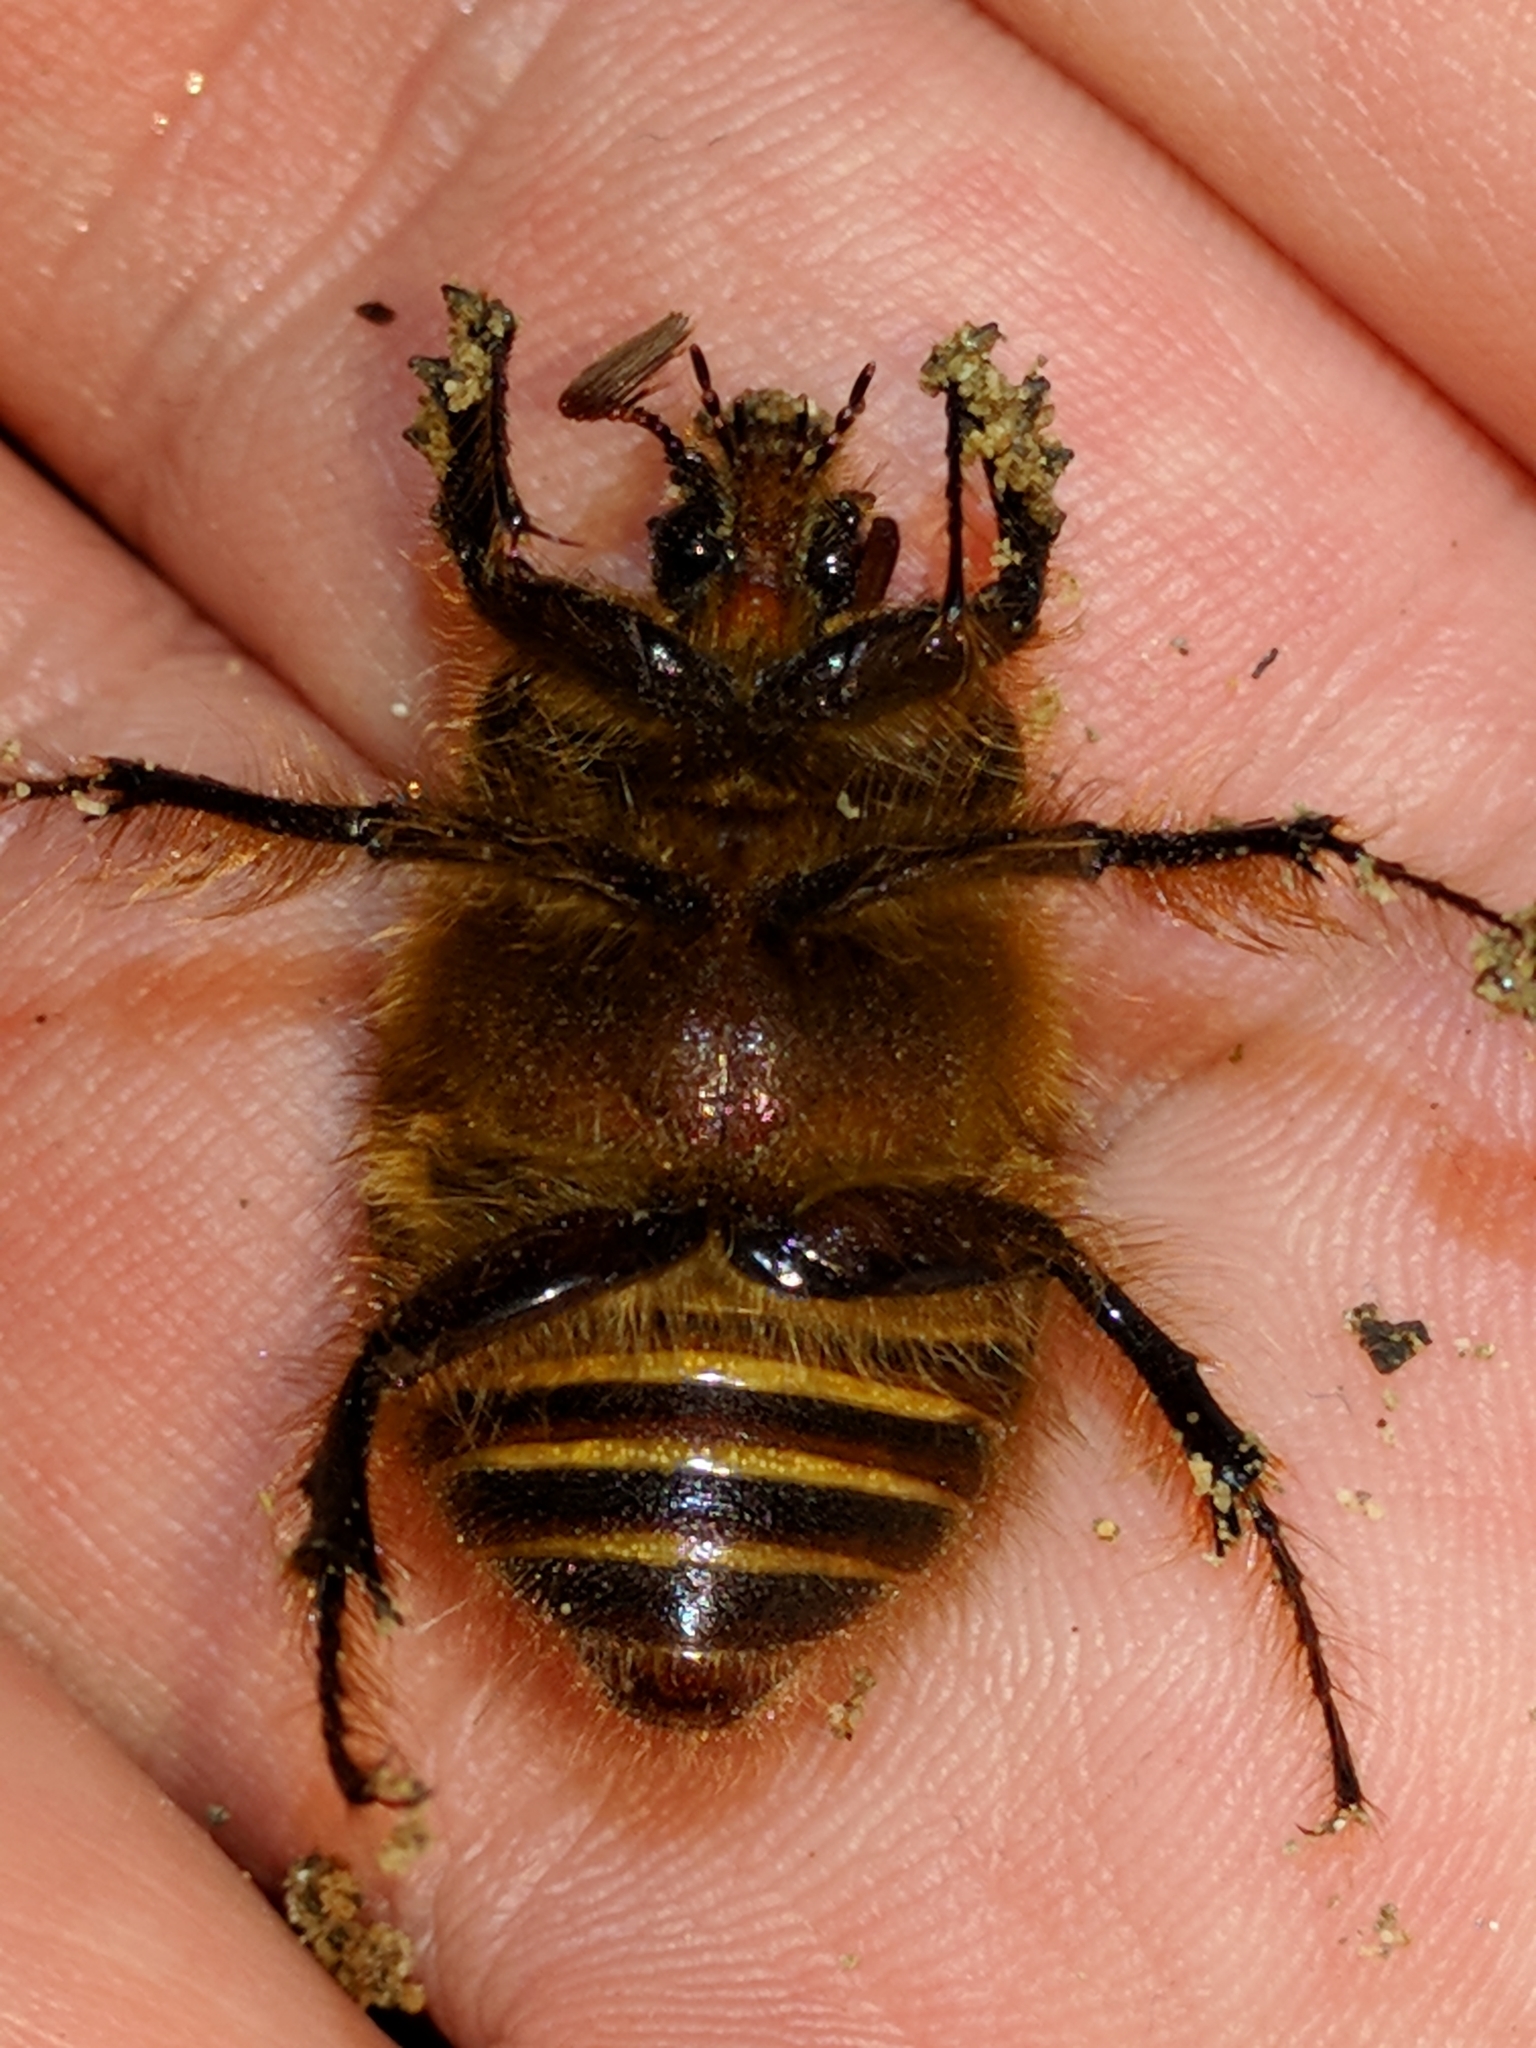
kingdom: Animalia
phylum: Arthropoda
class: Insecta
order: Coleoptera
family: Pleocomidae
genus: Pleocoma
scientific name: Pleocoma behrensi
